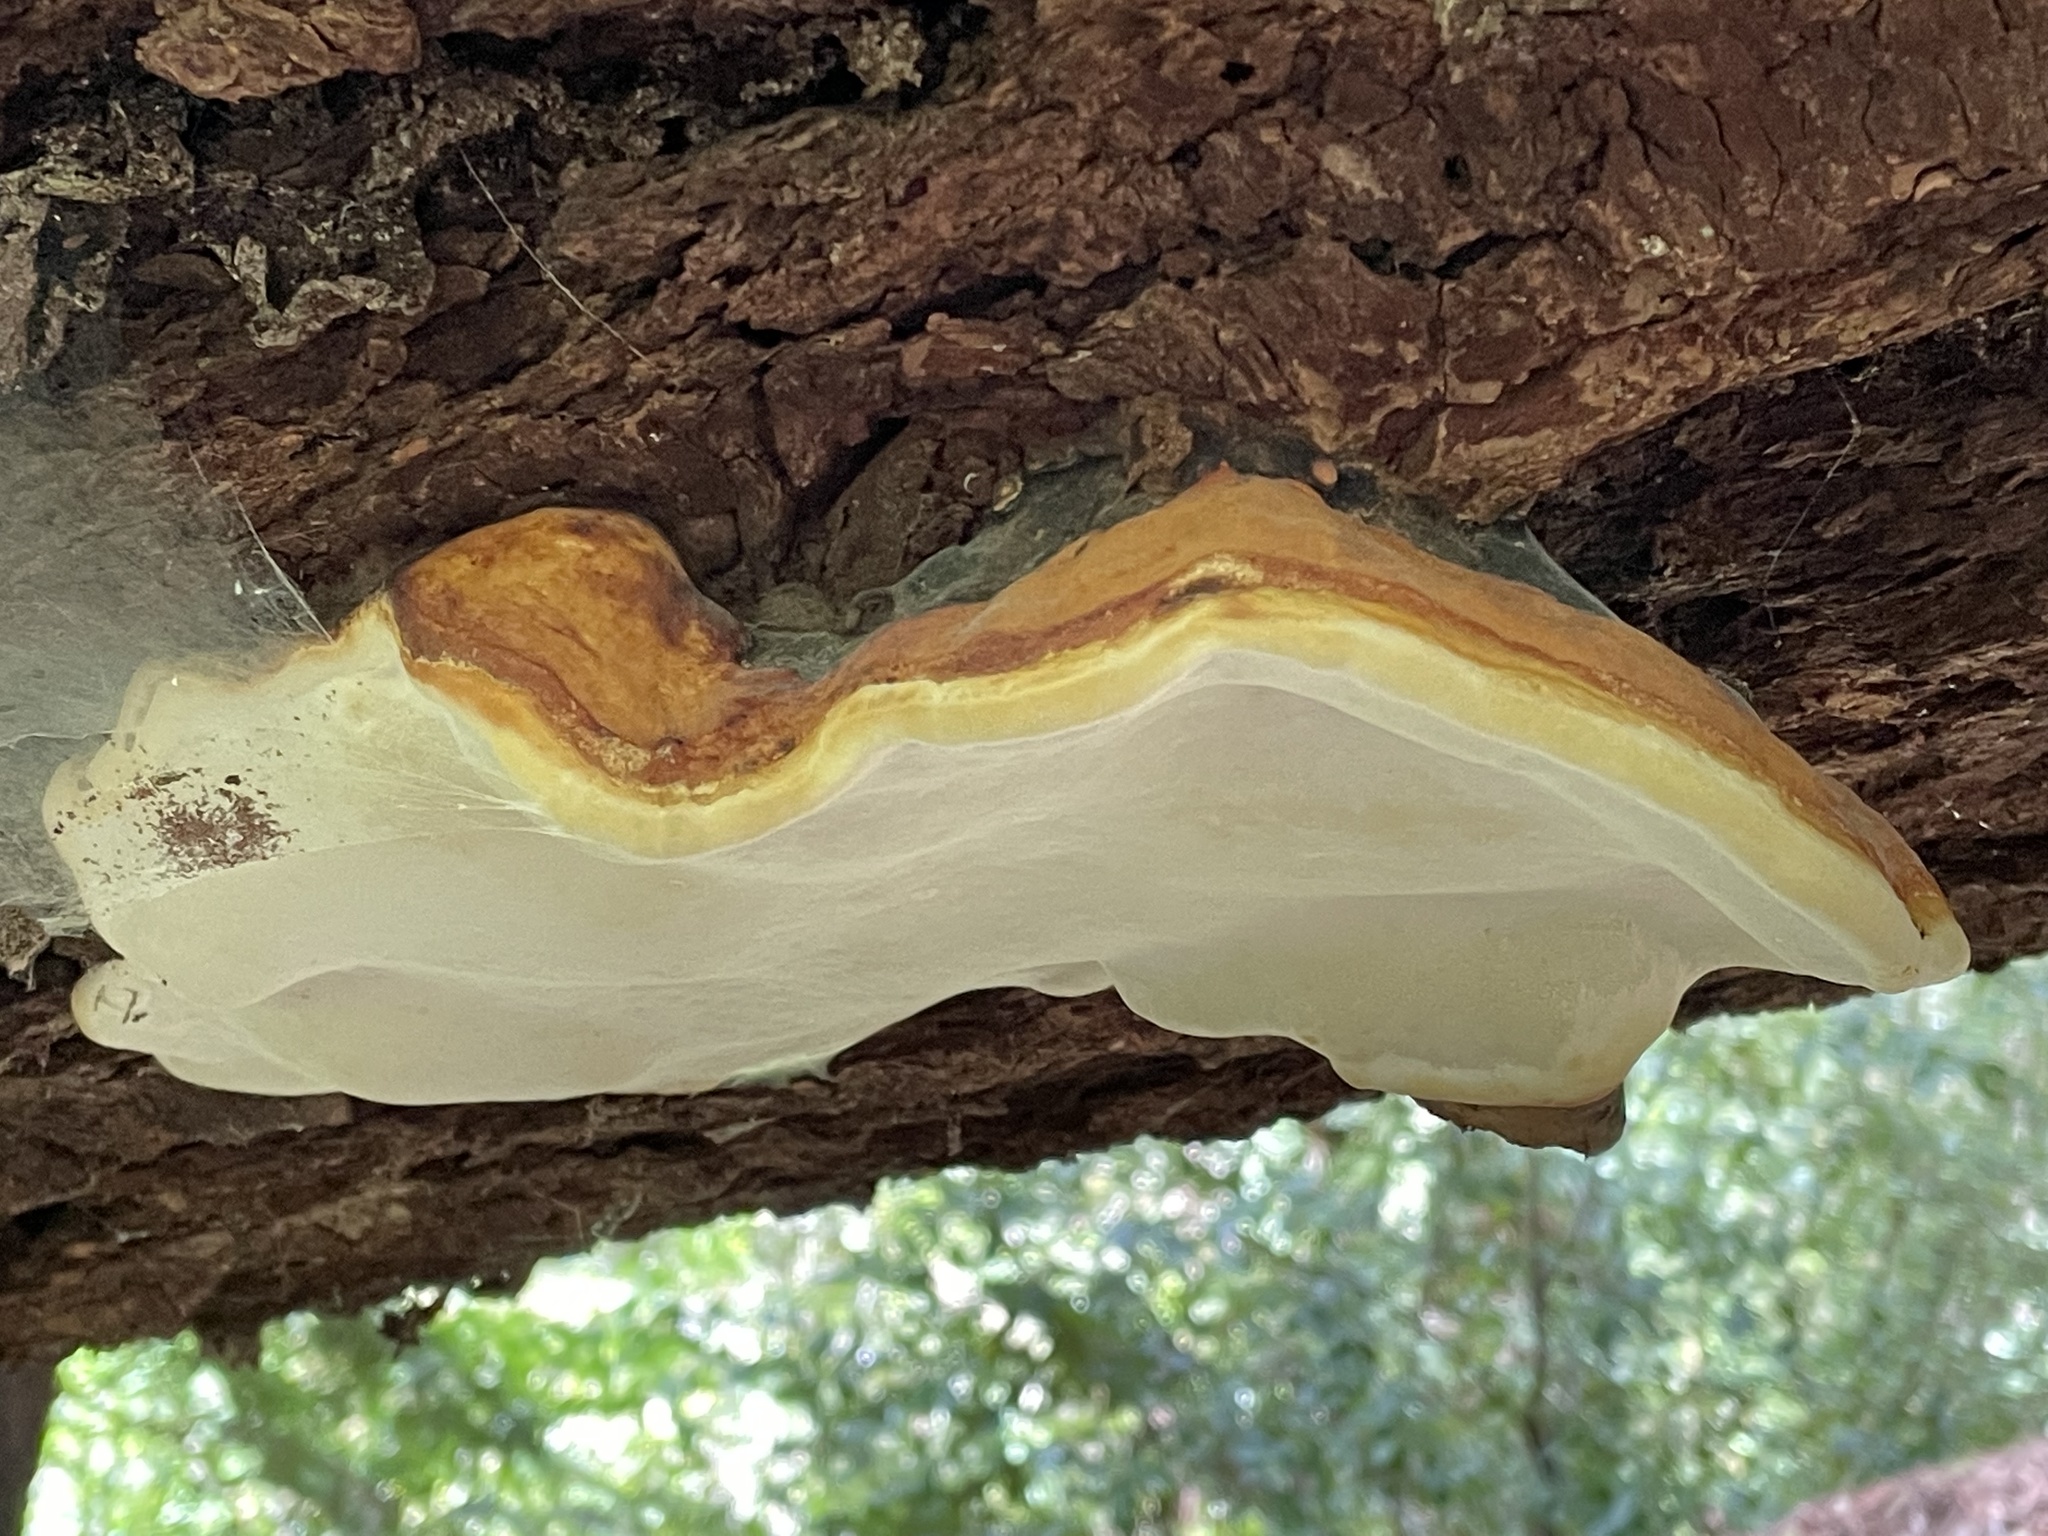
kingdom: Fungi
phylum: Basidiomycota
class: Agaricomycetes
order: Polyporales
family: Fomitopsidaceae
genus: Fomitopsis
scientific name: Fomitopsis mounceae
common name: Northern red belt
